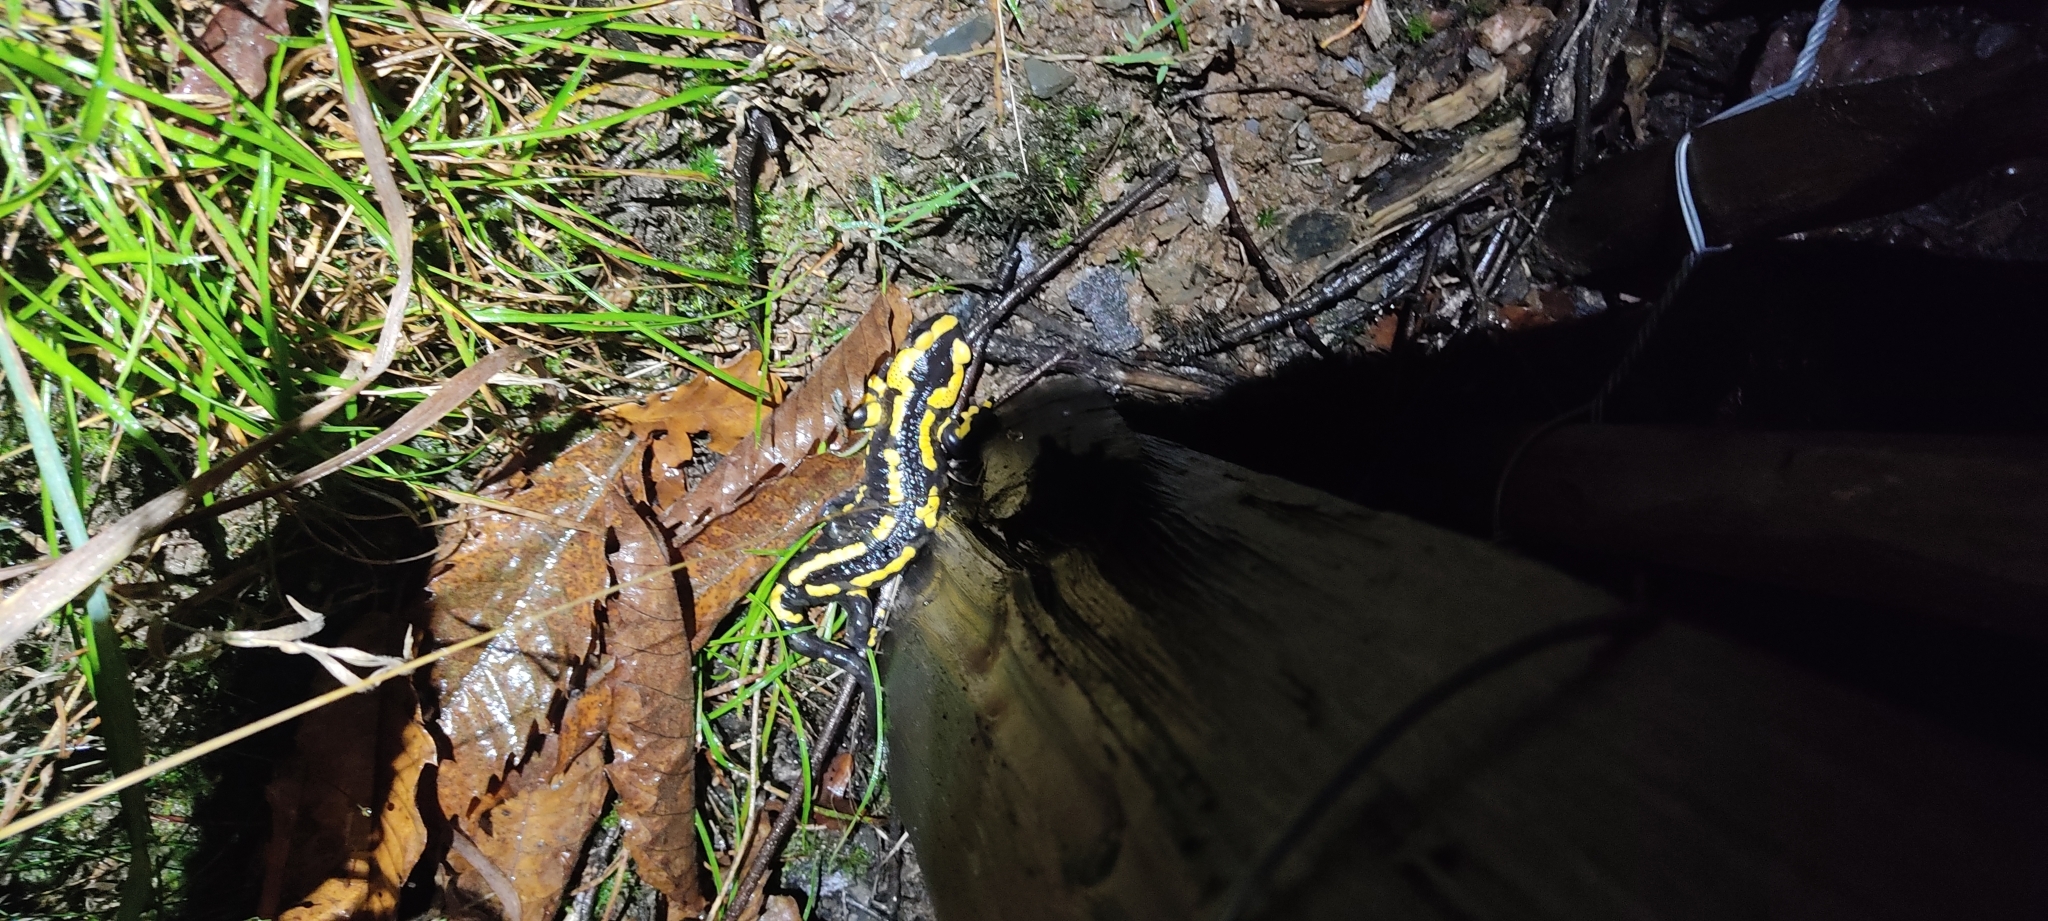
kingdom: Animalia
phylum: Chordata
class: Amphibia
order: Caudata
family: Salamandridae
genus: Salamandra
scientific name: Salamandra salamandra
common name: Fire salamander
